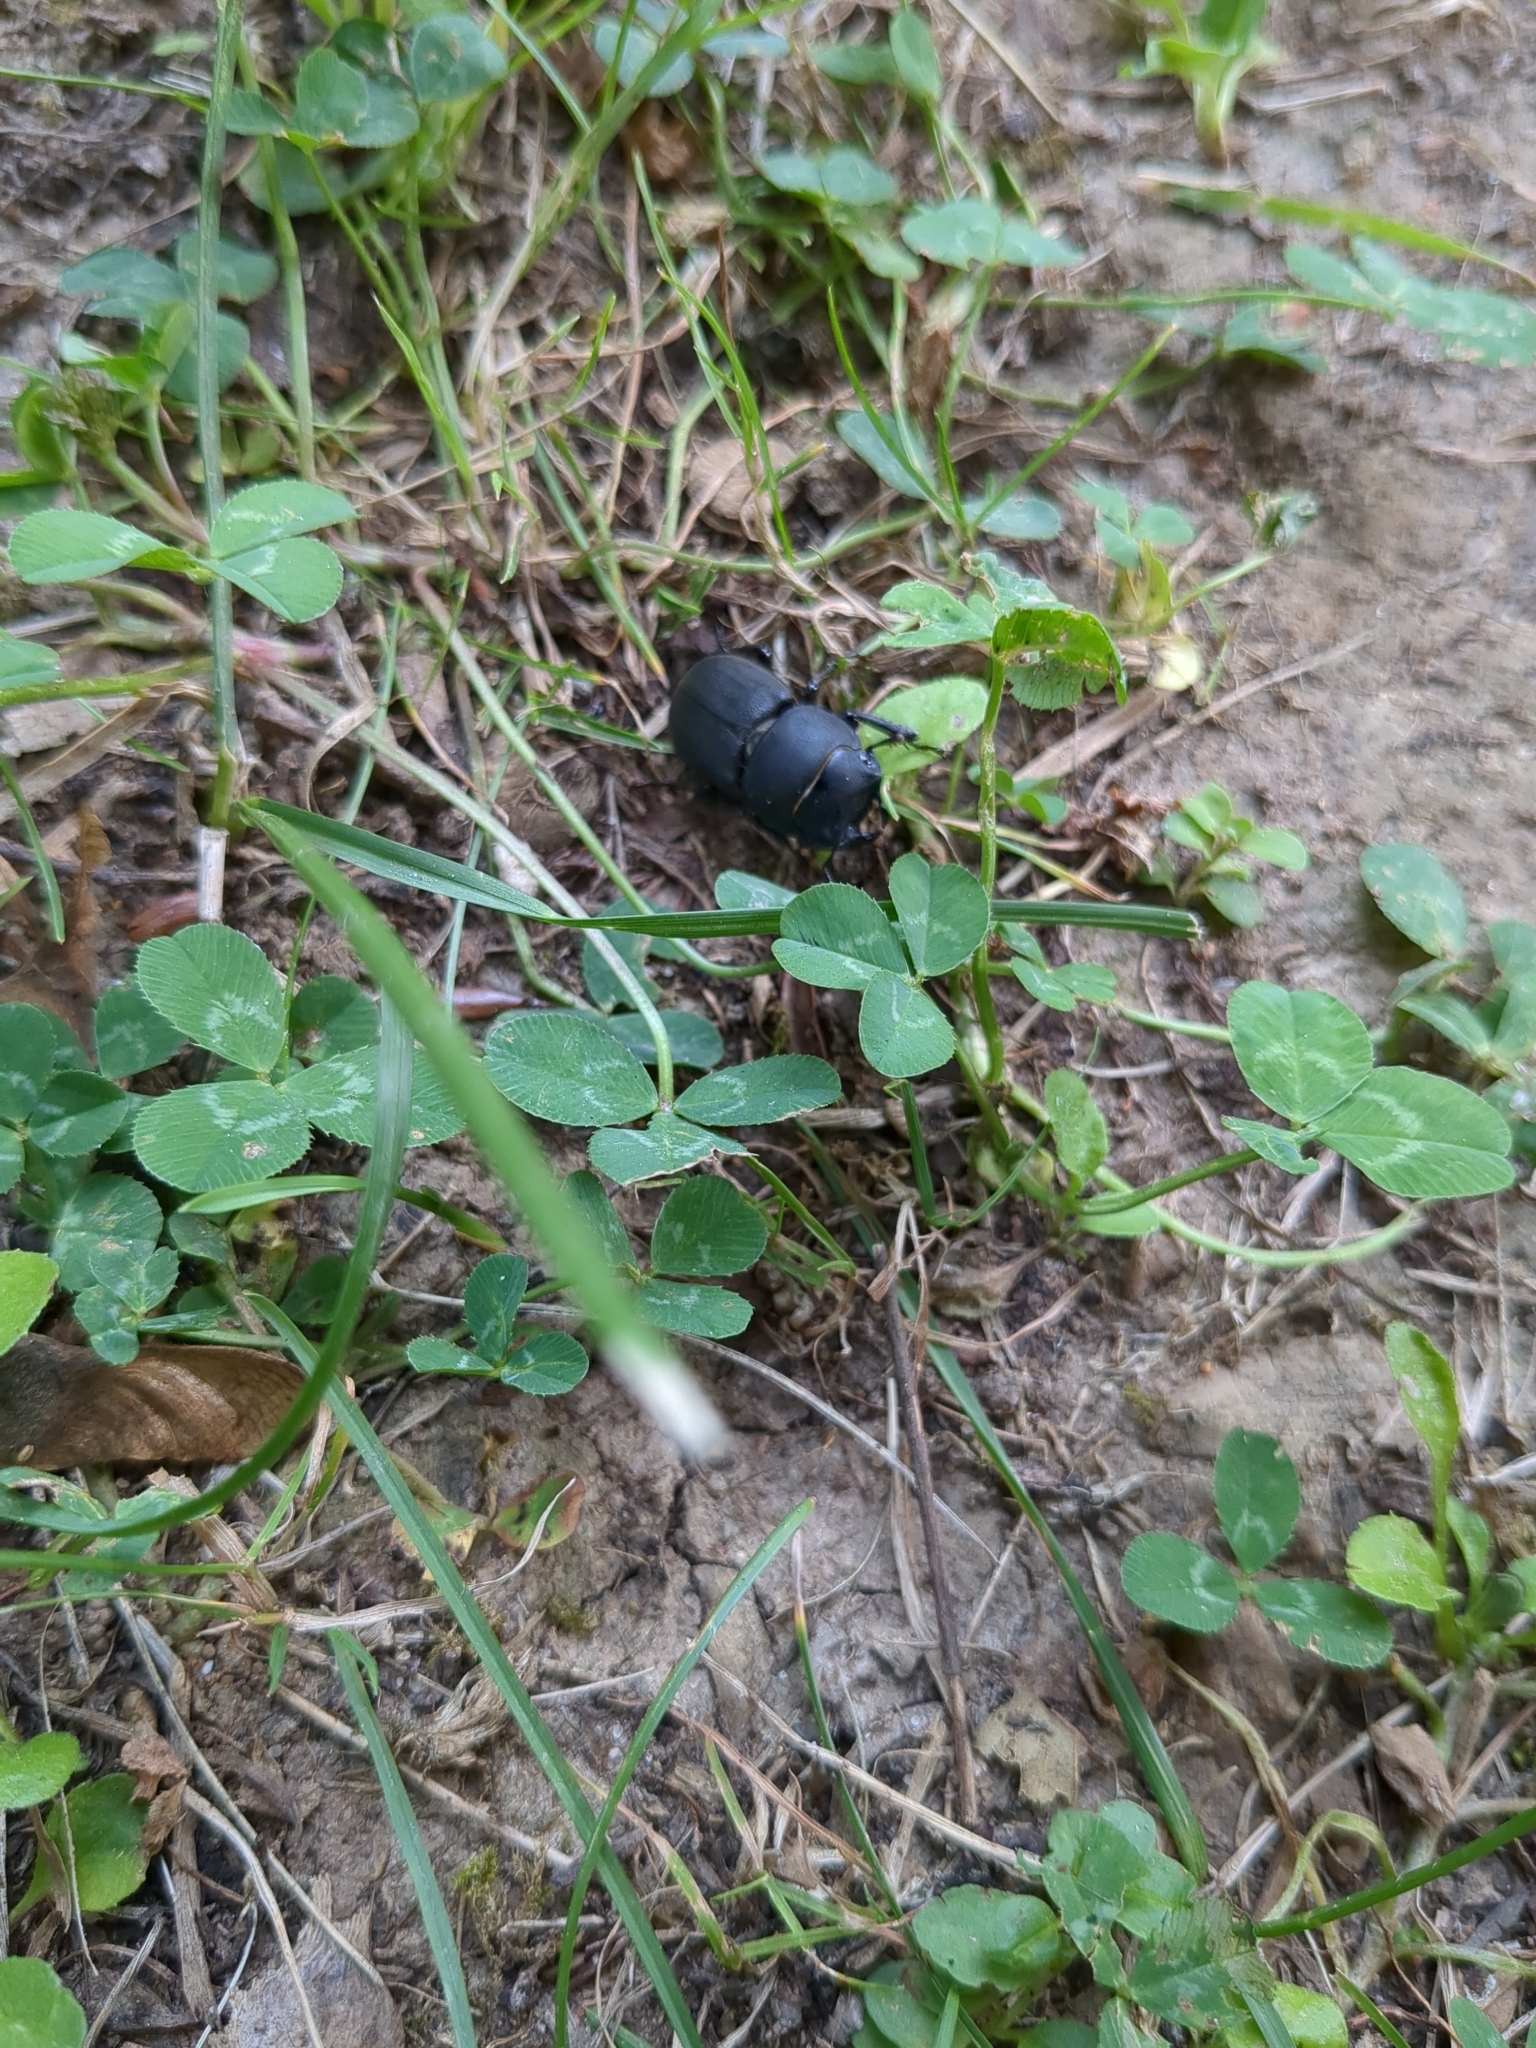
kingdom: Animalia
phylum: Arthropoda
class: Insecta
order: Coleoptera
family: Lucanidae
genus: Dorcus
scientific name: Dorcus parallelipipedus
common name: Lesser stag beetle
